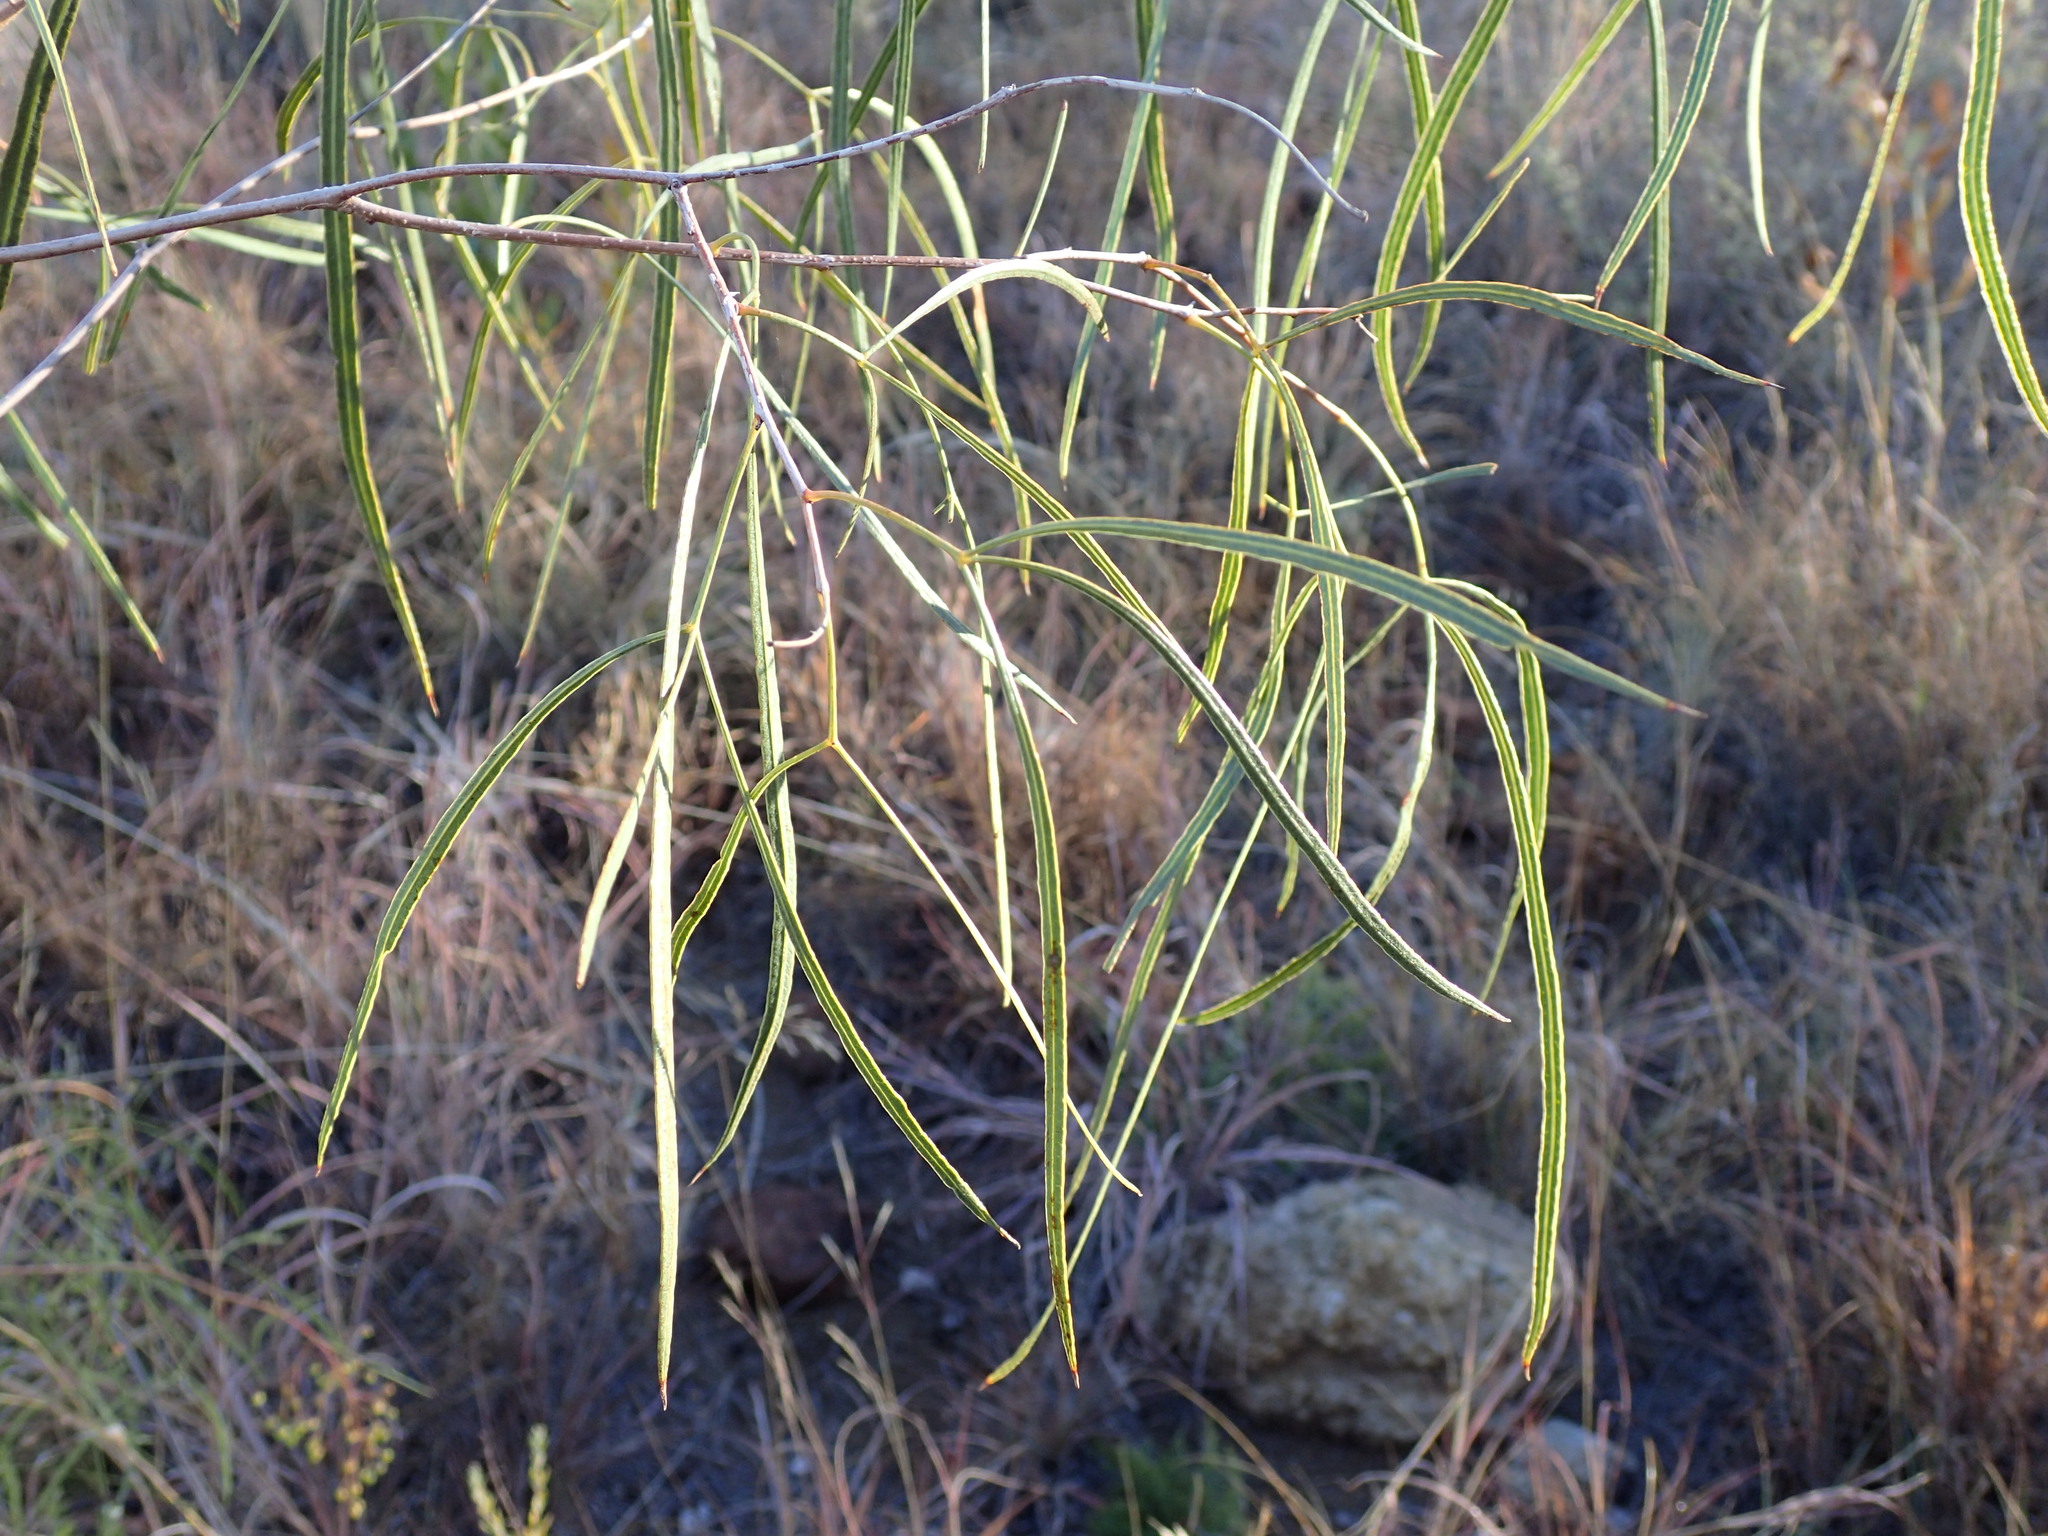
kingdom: Plantae
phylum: Tracheophyta
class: Magnoliopsida
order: Sapindales
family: Anacardiaceae
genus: Searsia
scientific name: Searsia keetii
